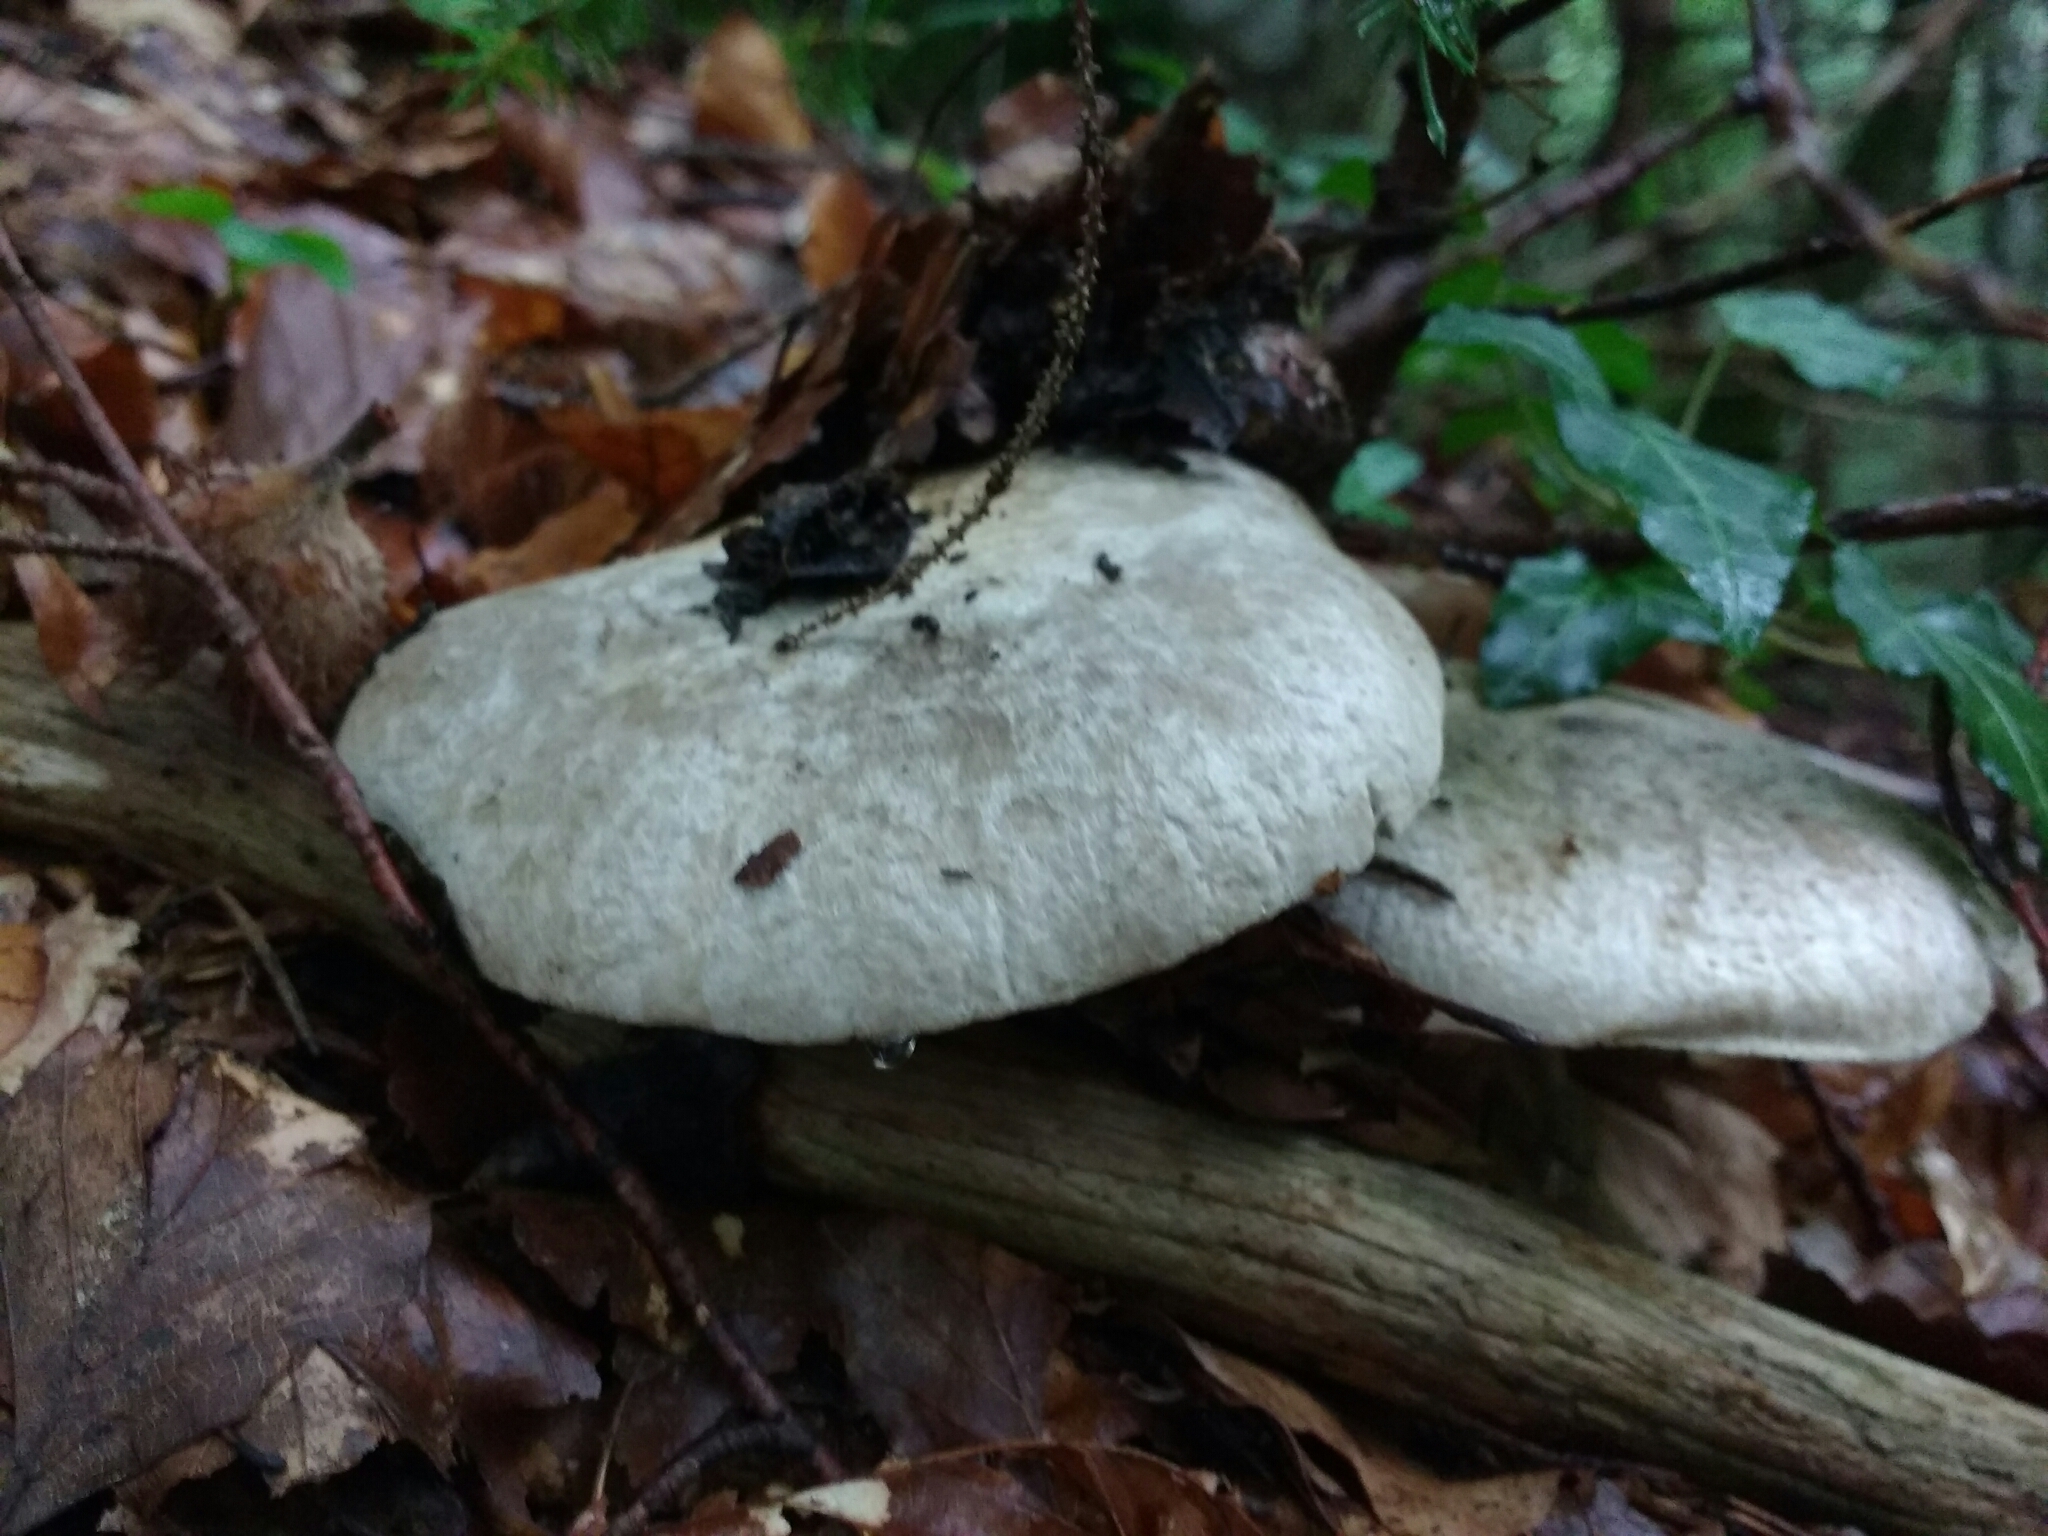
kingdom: Fungi
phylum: Basidiomycota
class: Agaricomycetes
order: Agaricales
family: Tricholomataceae
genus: Tricholoma
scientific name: Tricholoma filamentosum
